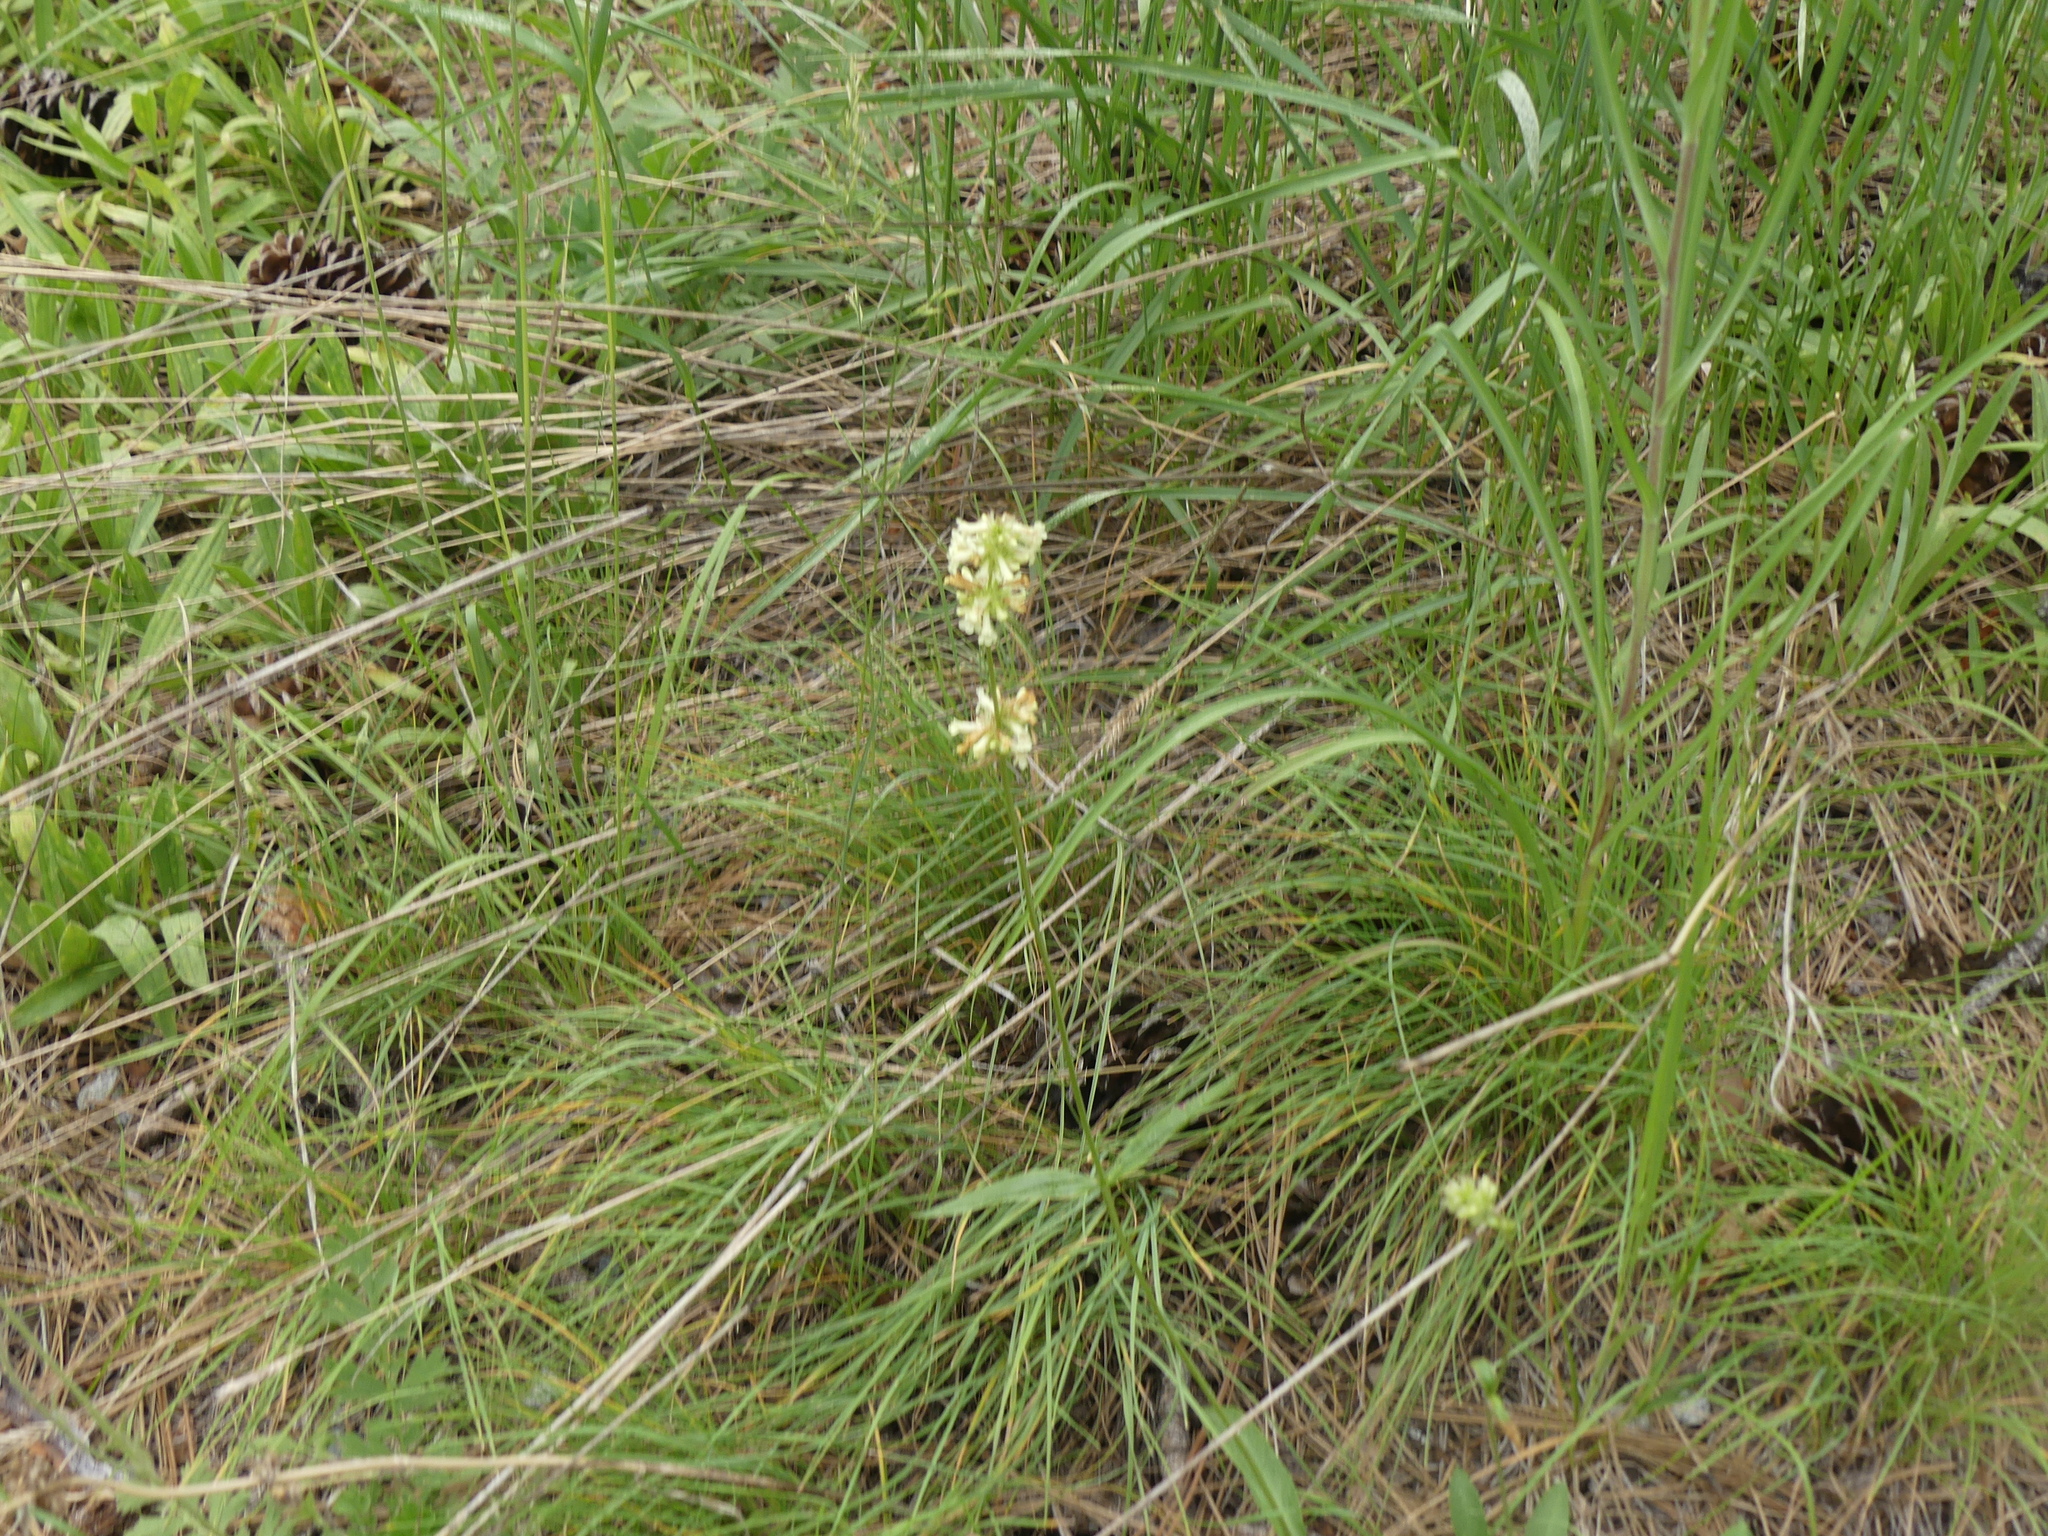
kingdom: Plantae
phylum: Tracheophyta
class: Magnoliopsida
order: Lamiales
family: Plantaginaceae
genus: Penstemon
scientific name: Penstemon confertus
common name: Lesser yellow beardtongue
